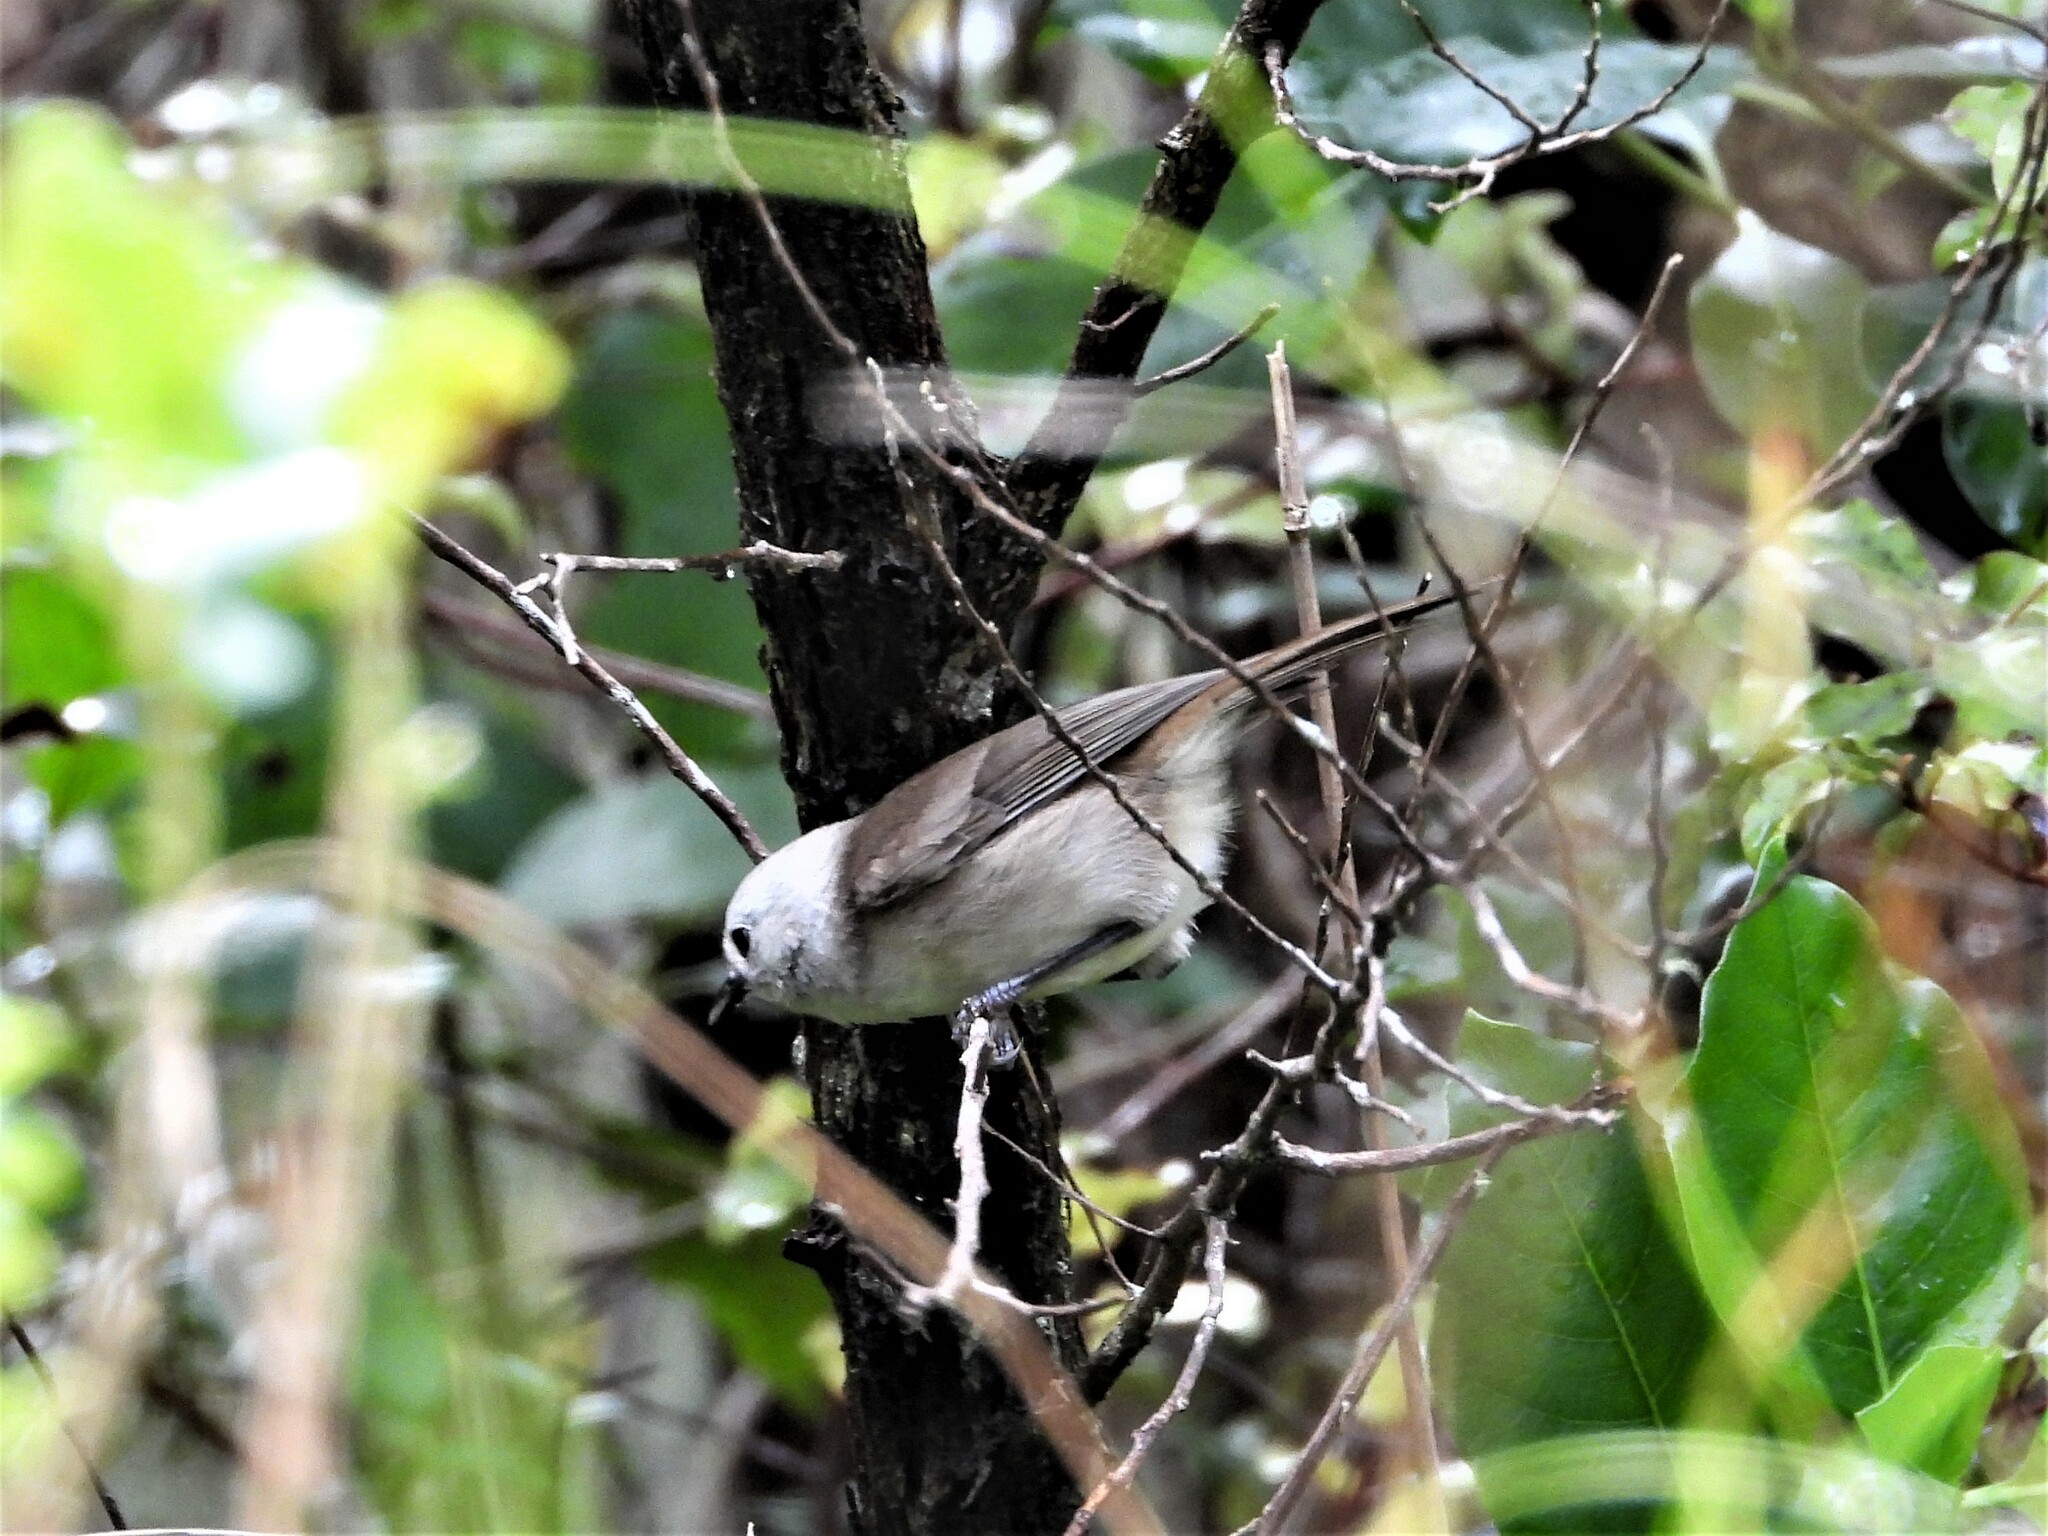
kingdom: Animalia
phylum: Chordata
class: Aves
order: Passeriformes
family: Acanthizidae
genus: Mohoua
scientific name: Mohoua albicilla
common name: Whitehead
